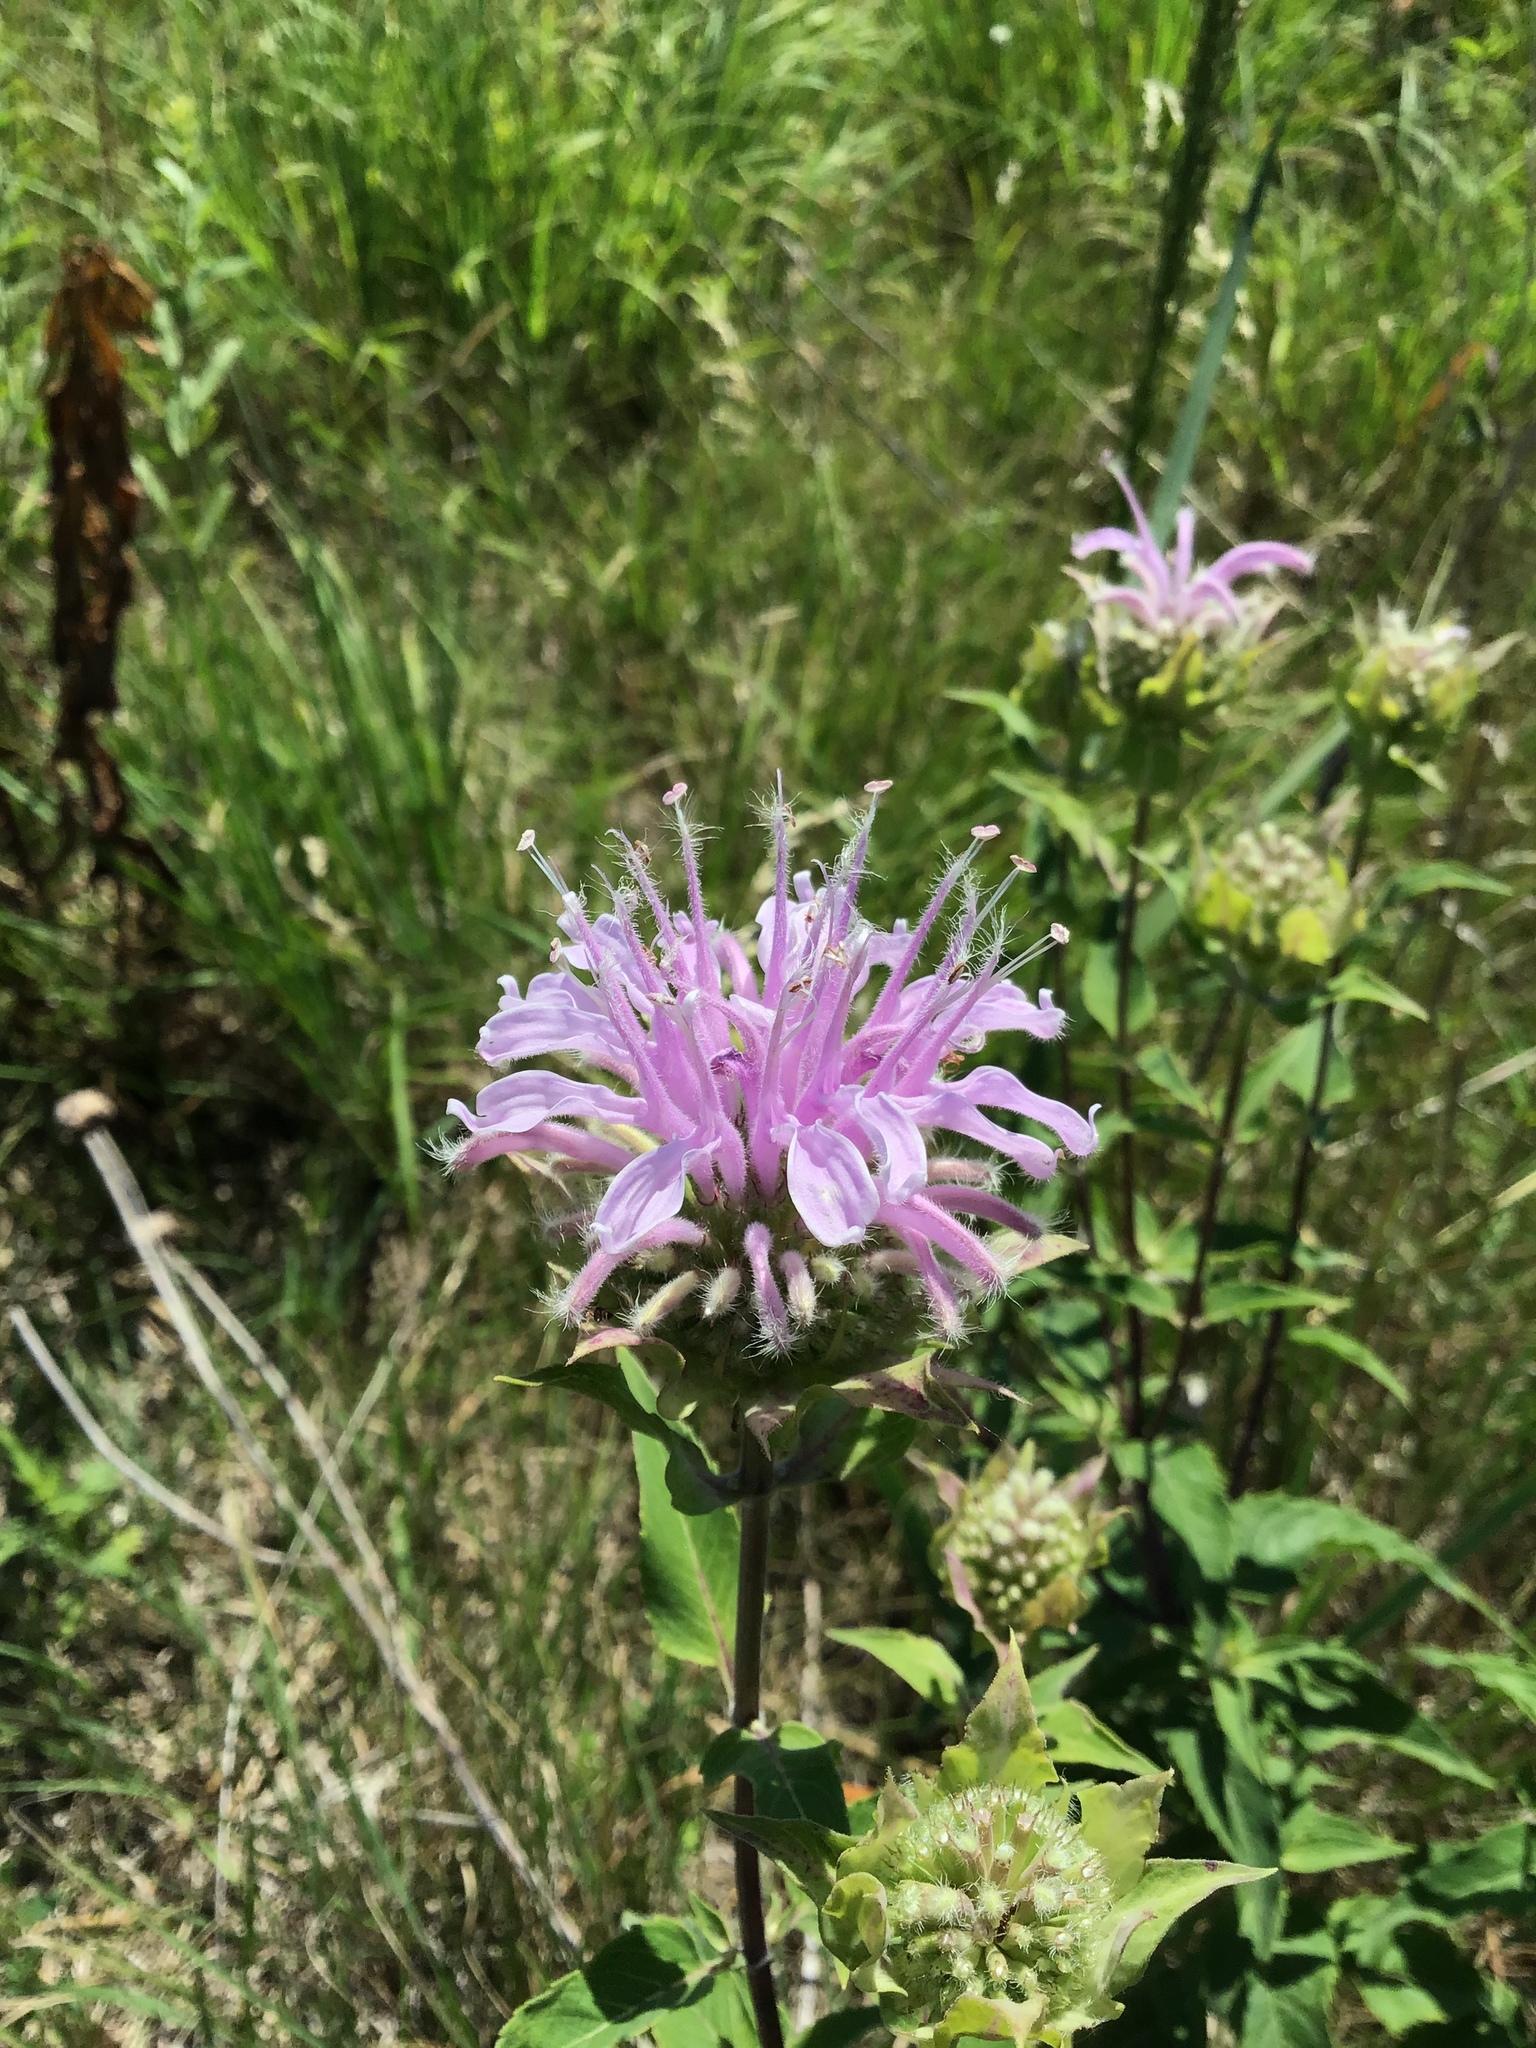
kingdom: Plantae
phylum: Tracheophyta
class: Magnoliopsida
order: Lamiales
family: Lamiaceae
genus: Monarda
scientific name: Monarda fistulosa
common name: Purple beebalm
